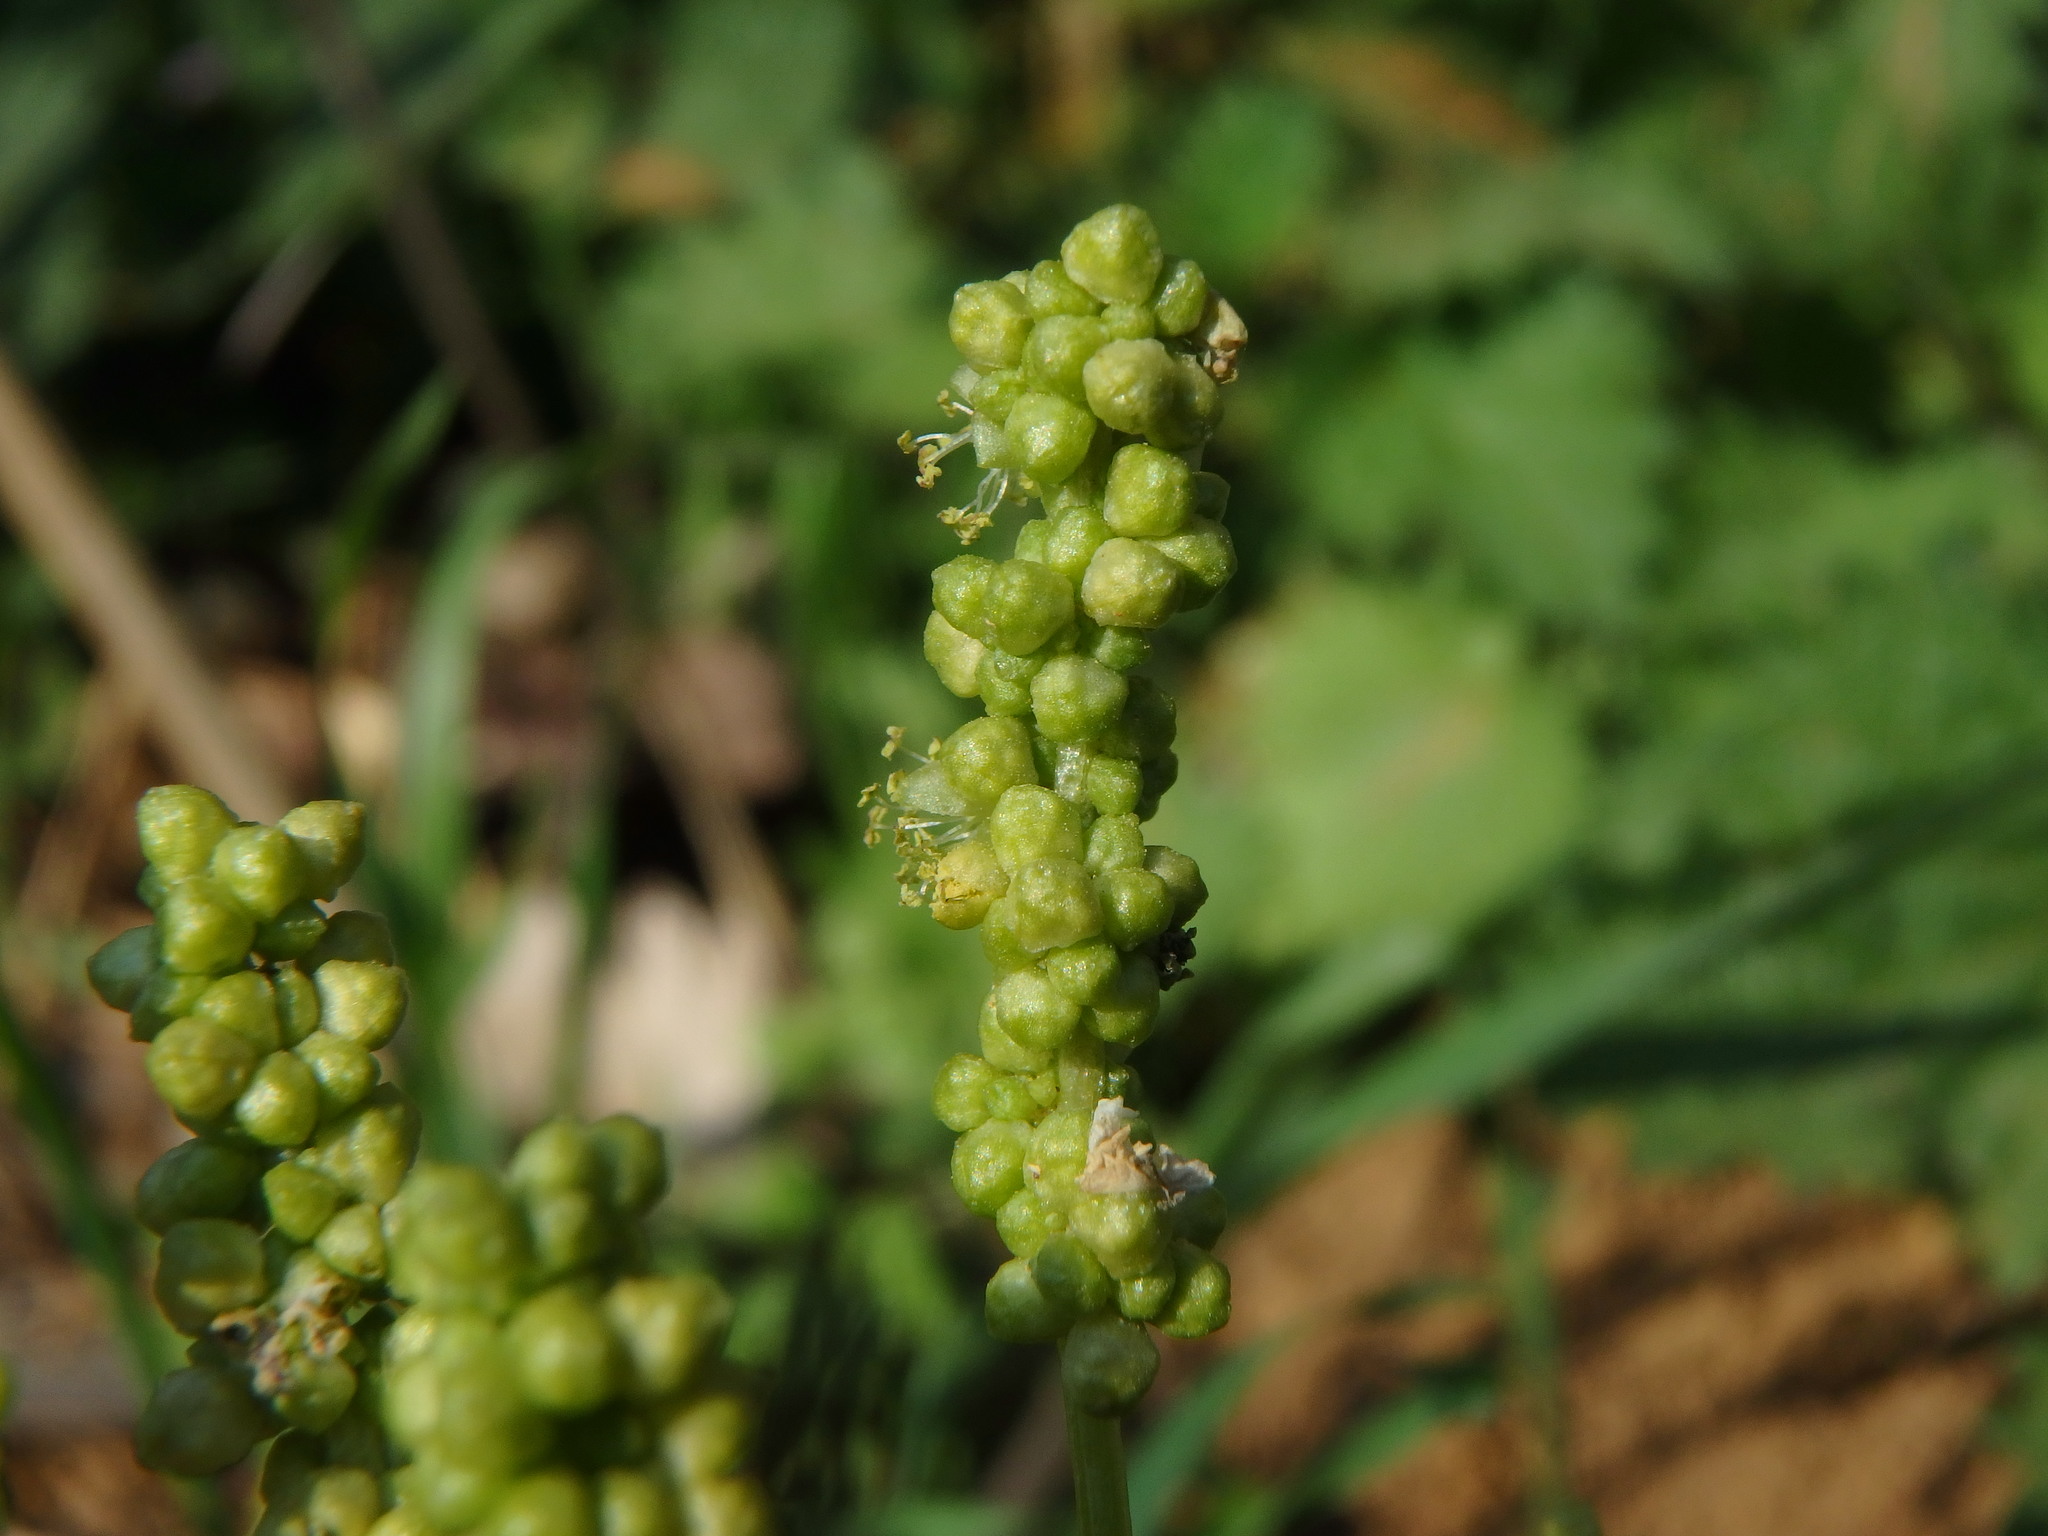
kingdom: Plantae
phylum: Tracheophyta
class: Magnoliopsida
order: Malpighiales
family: Euphorbiaceae
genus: Mercurialis
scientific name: Mercurialis annua
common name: Annual mercury
